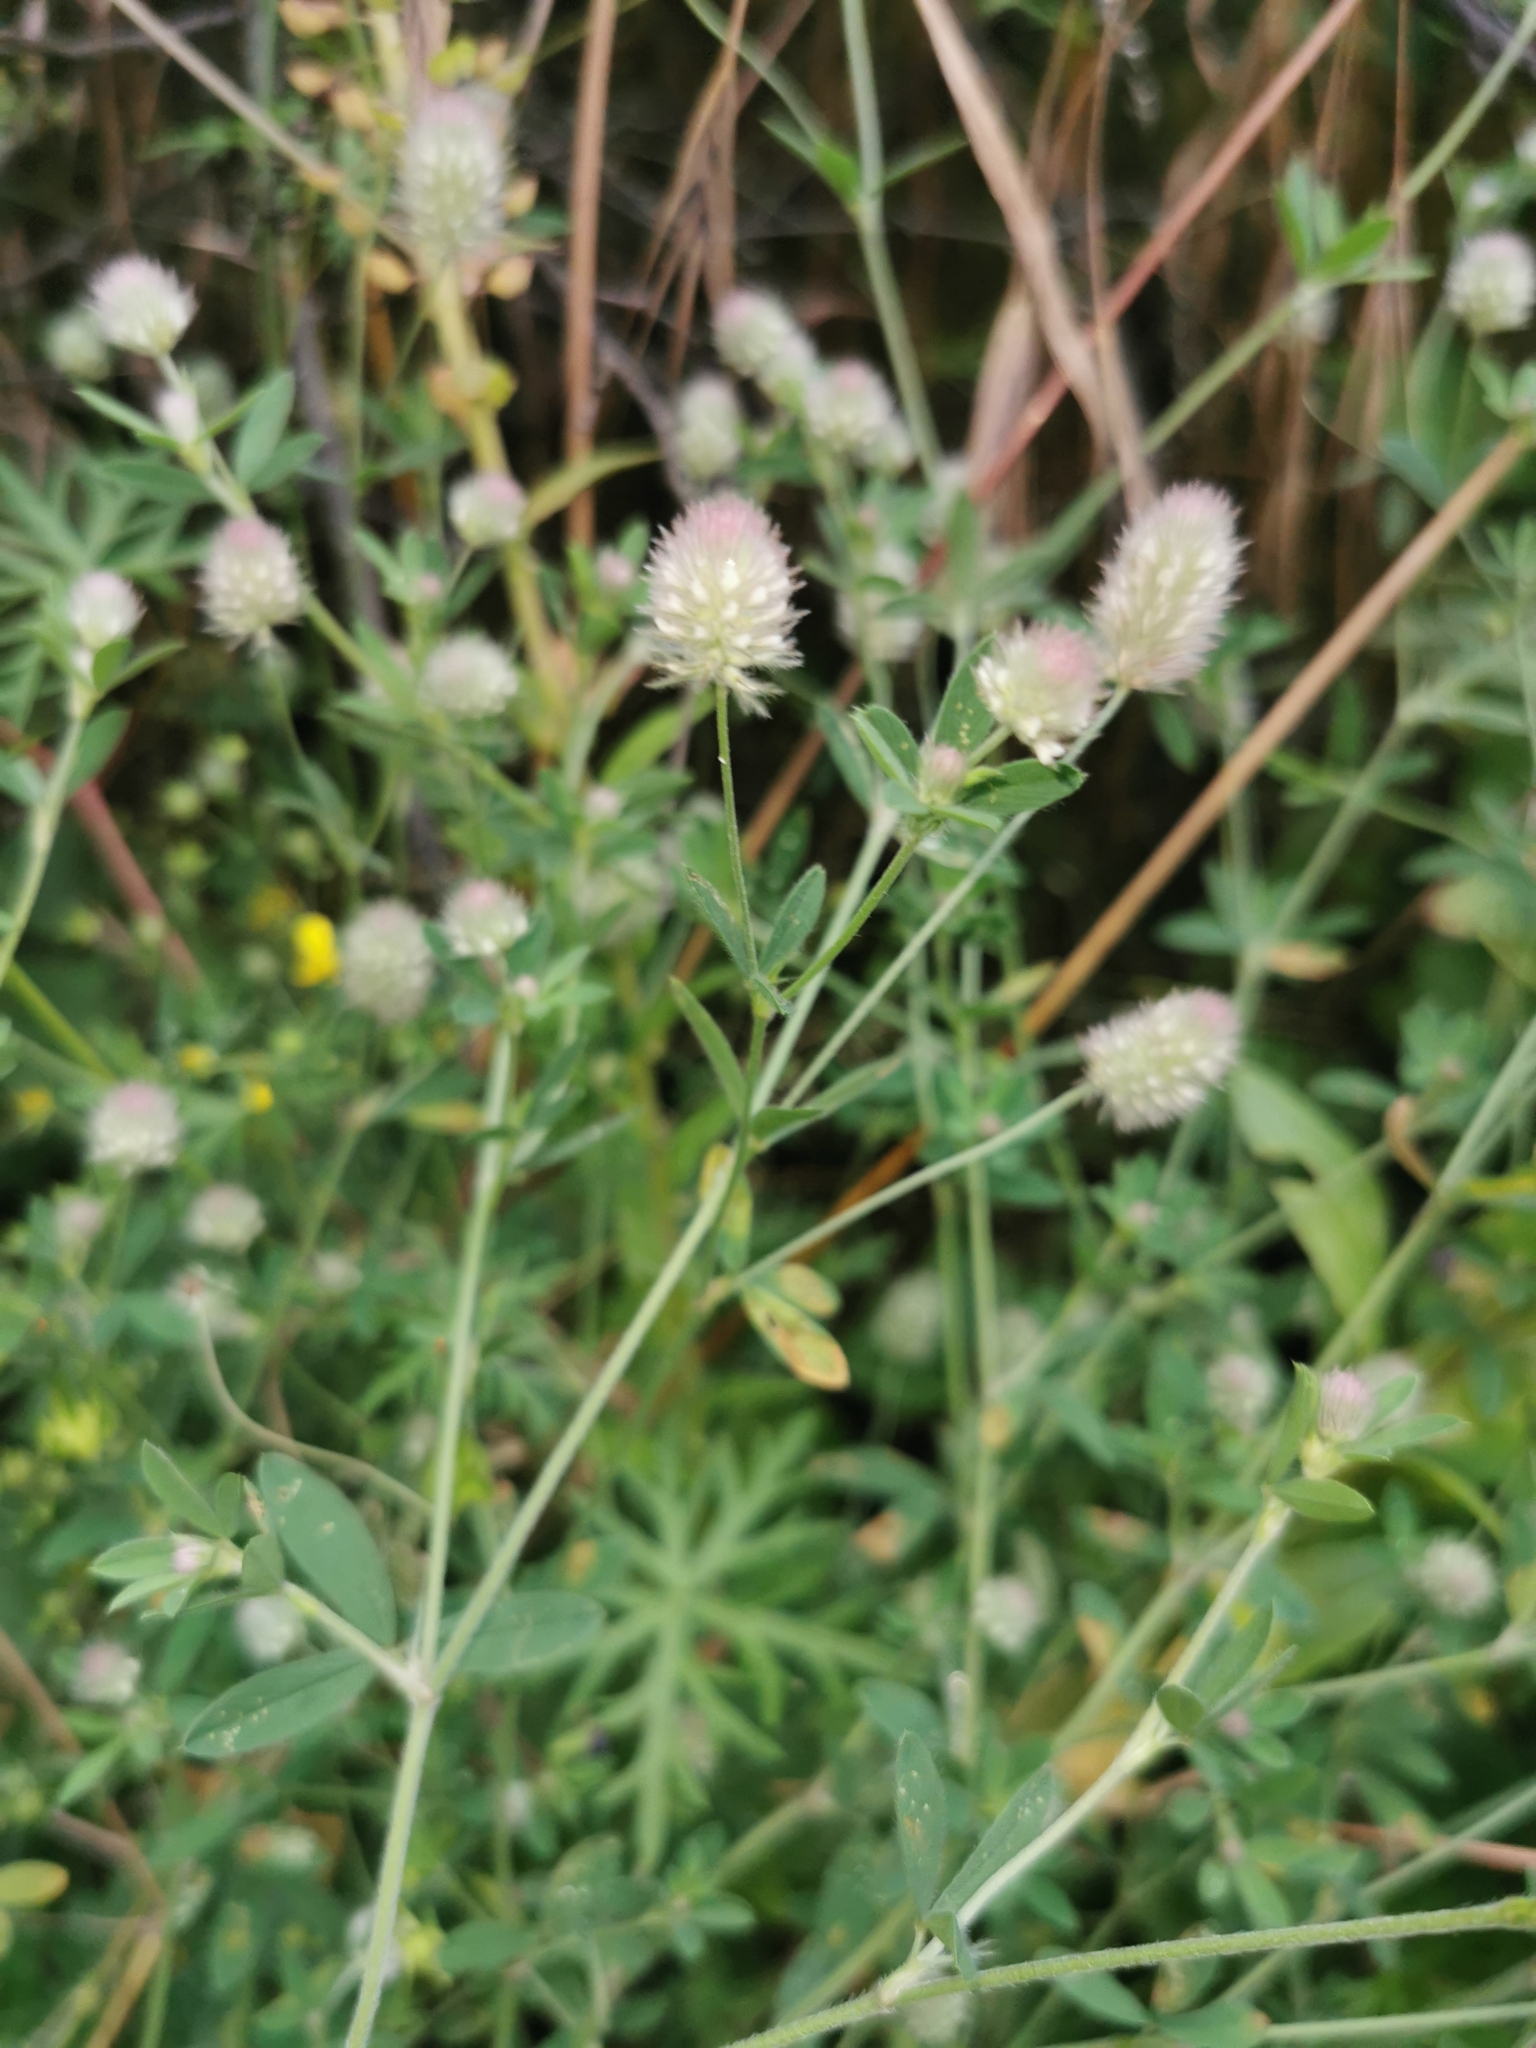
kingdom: Plantae
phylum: Tracheophyta
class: Magnoliopsida
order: Fabales
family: Fabaceae
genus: Trifolium
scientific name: Trifolium arvense
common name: Hare's-foot clover
